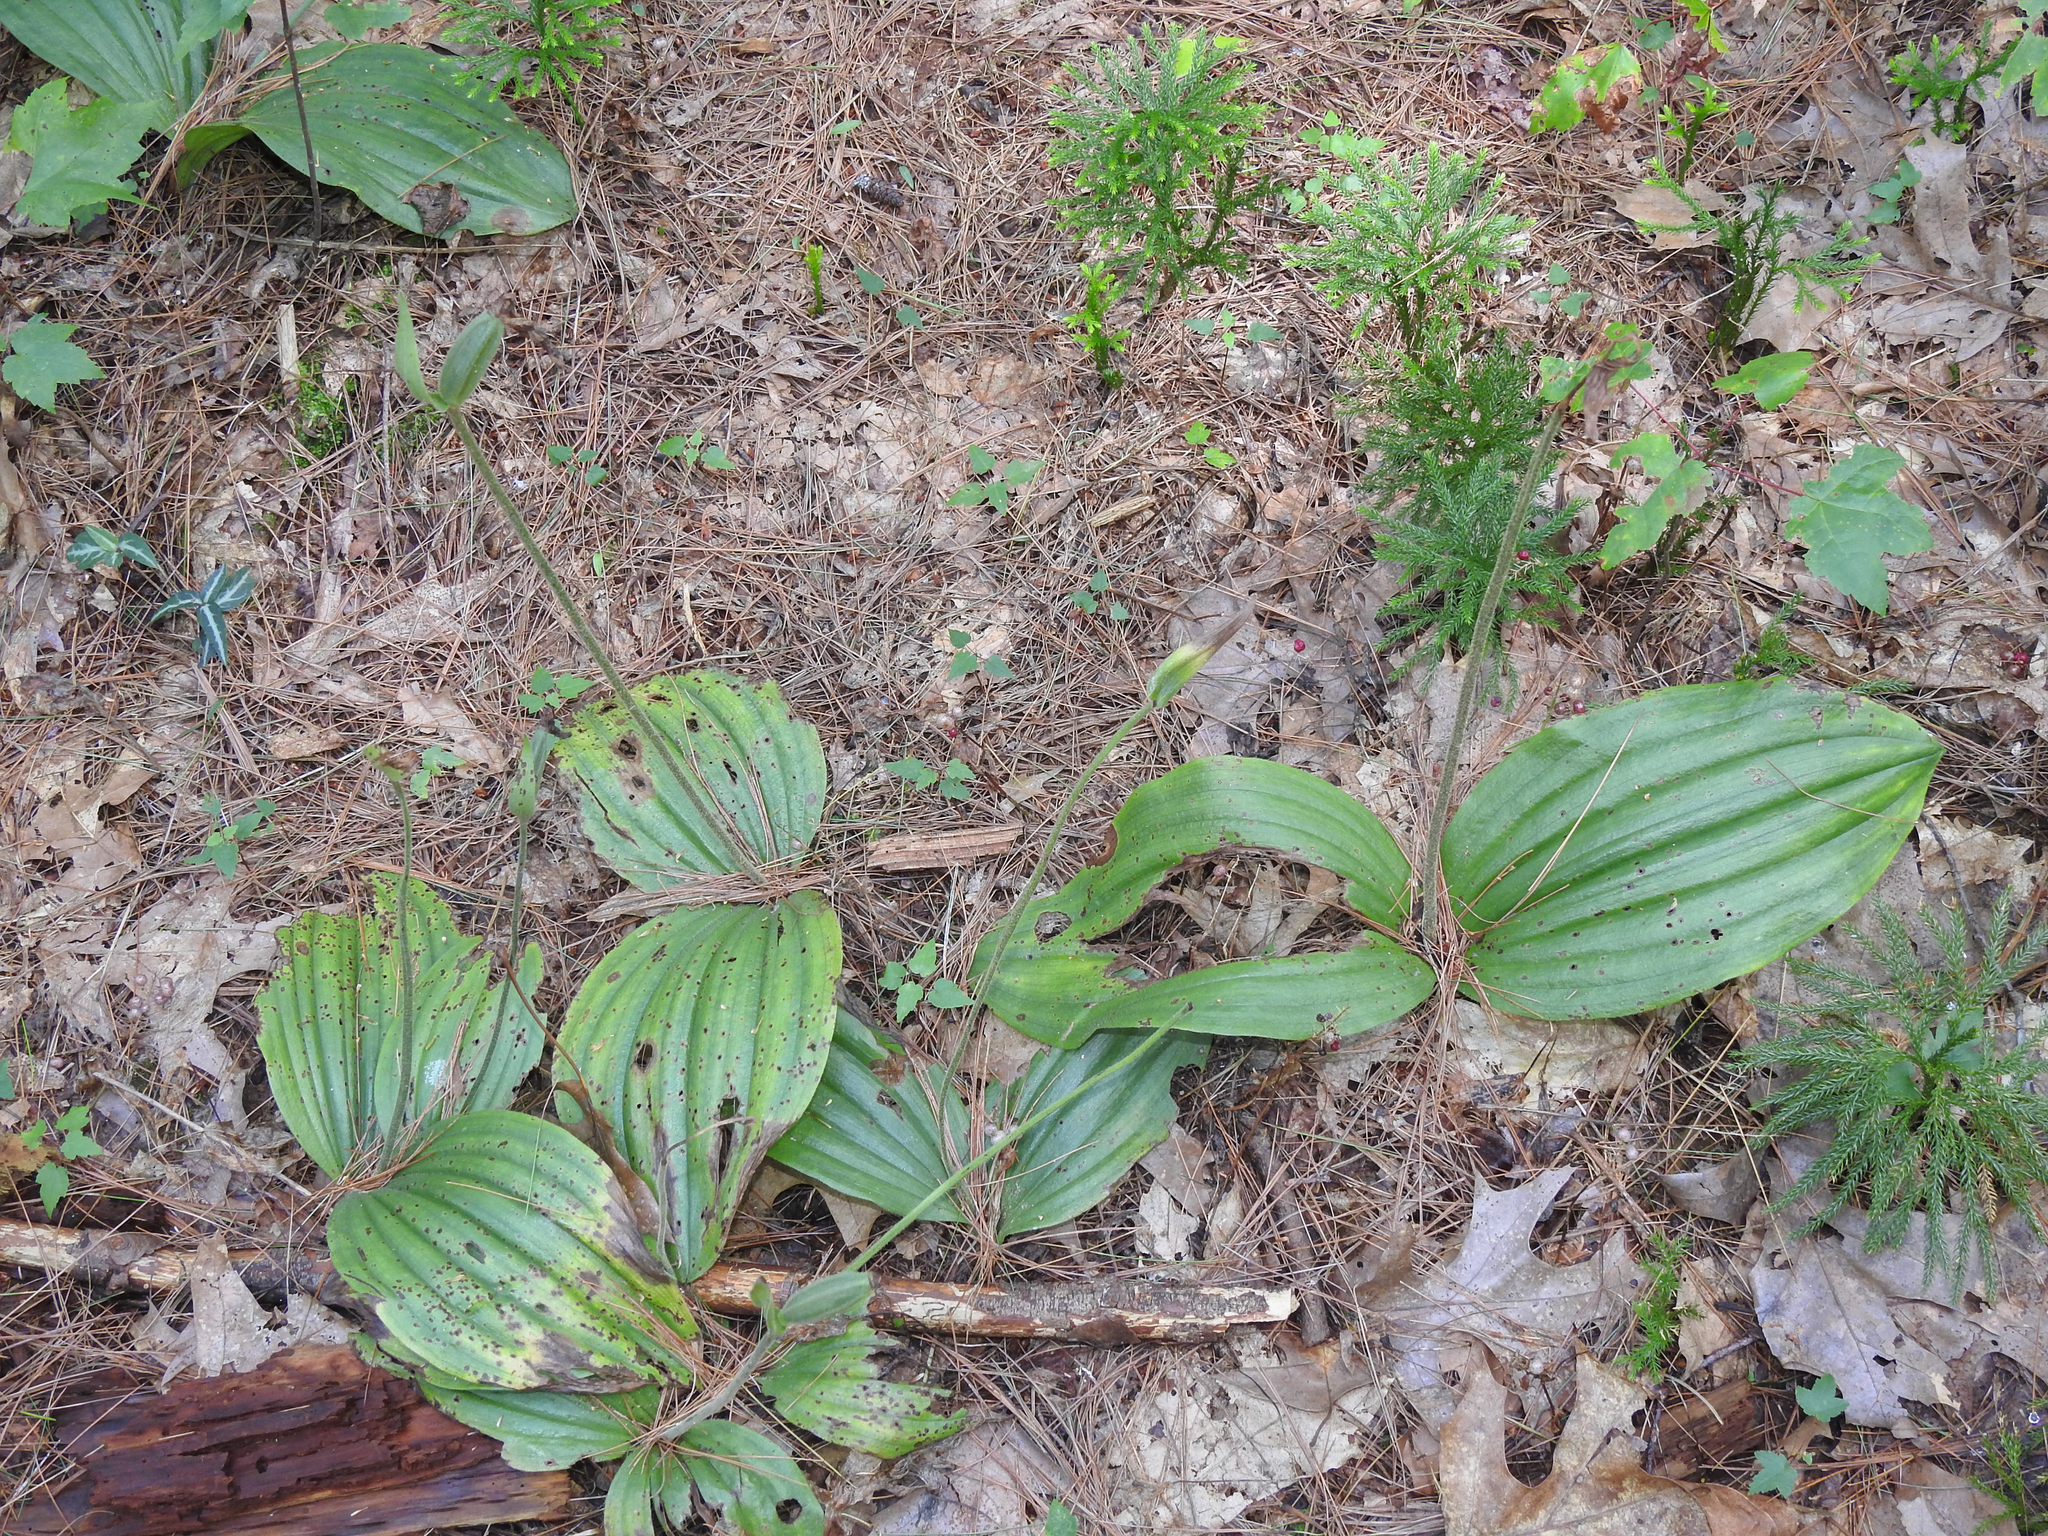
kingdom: Plantae
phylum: Tracheophyta
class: Liliopsida
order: Asparagales
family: Orchidaceae
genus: Cypripedium
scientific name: Cypripedium acaule
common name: Pink lady's-slipper
